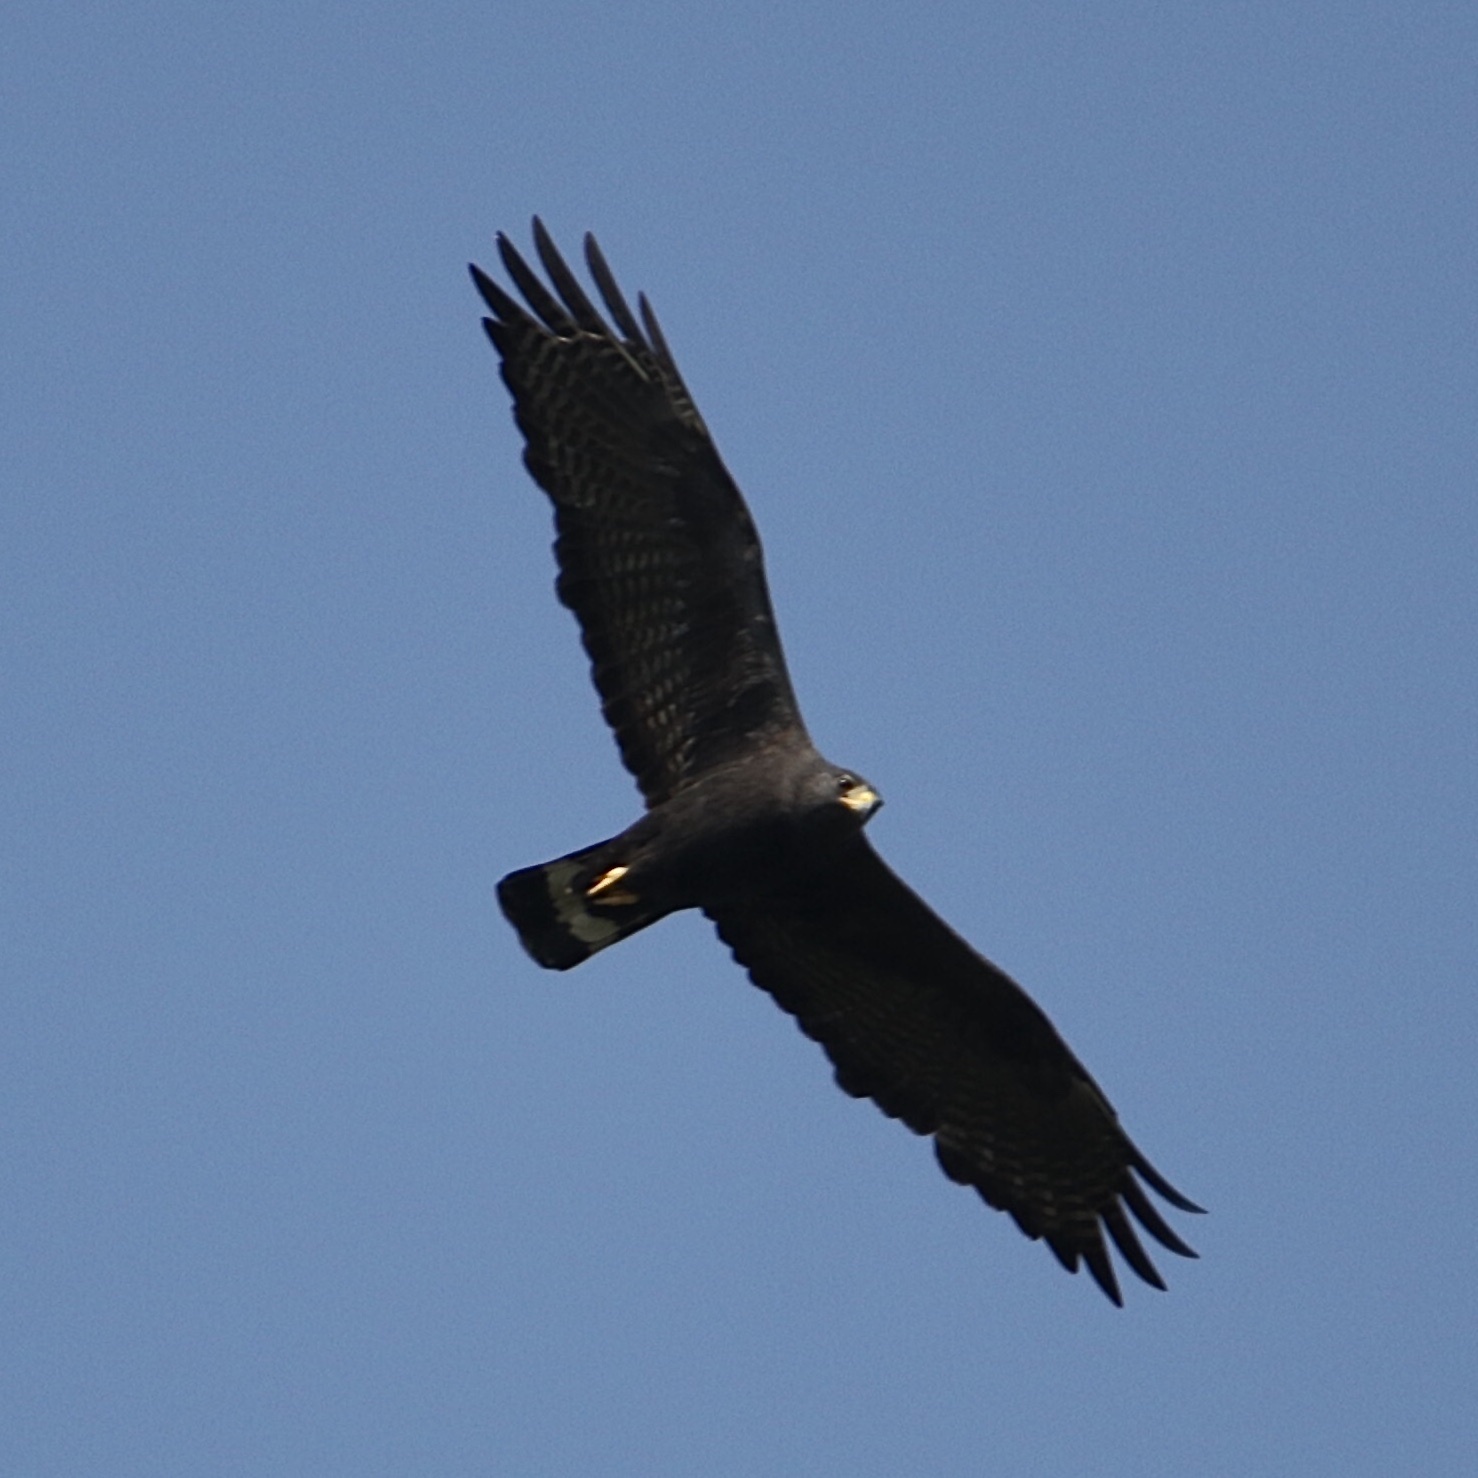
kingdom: Animalia
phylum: Chordata
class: Aves
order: Accipitriformes
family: Accipitridae
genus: Buteo
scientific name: Buteo albonotatus
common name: Zone-tailed hawk
